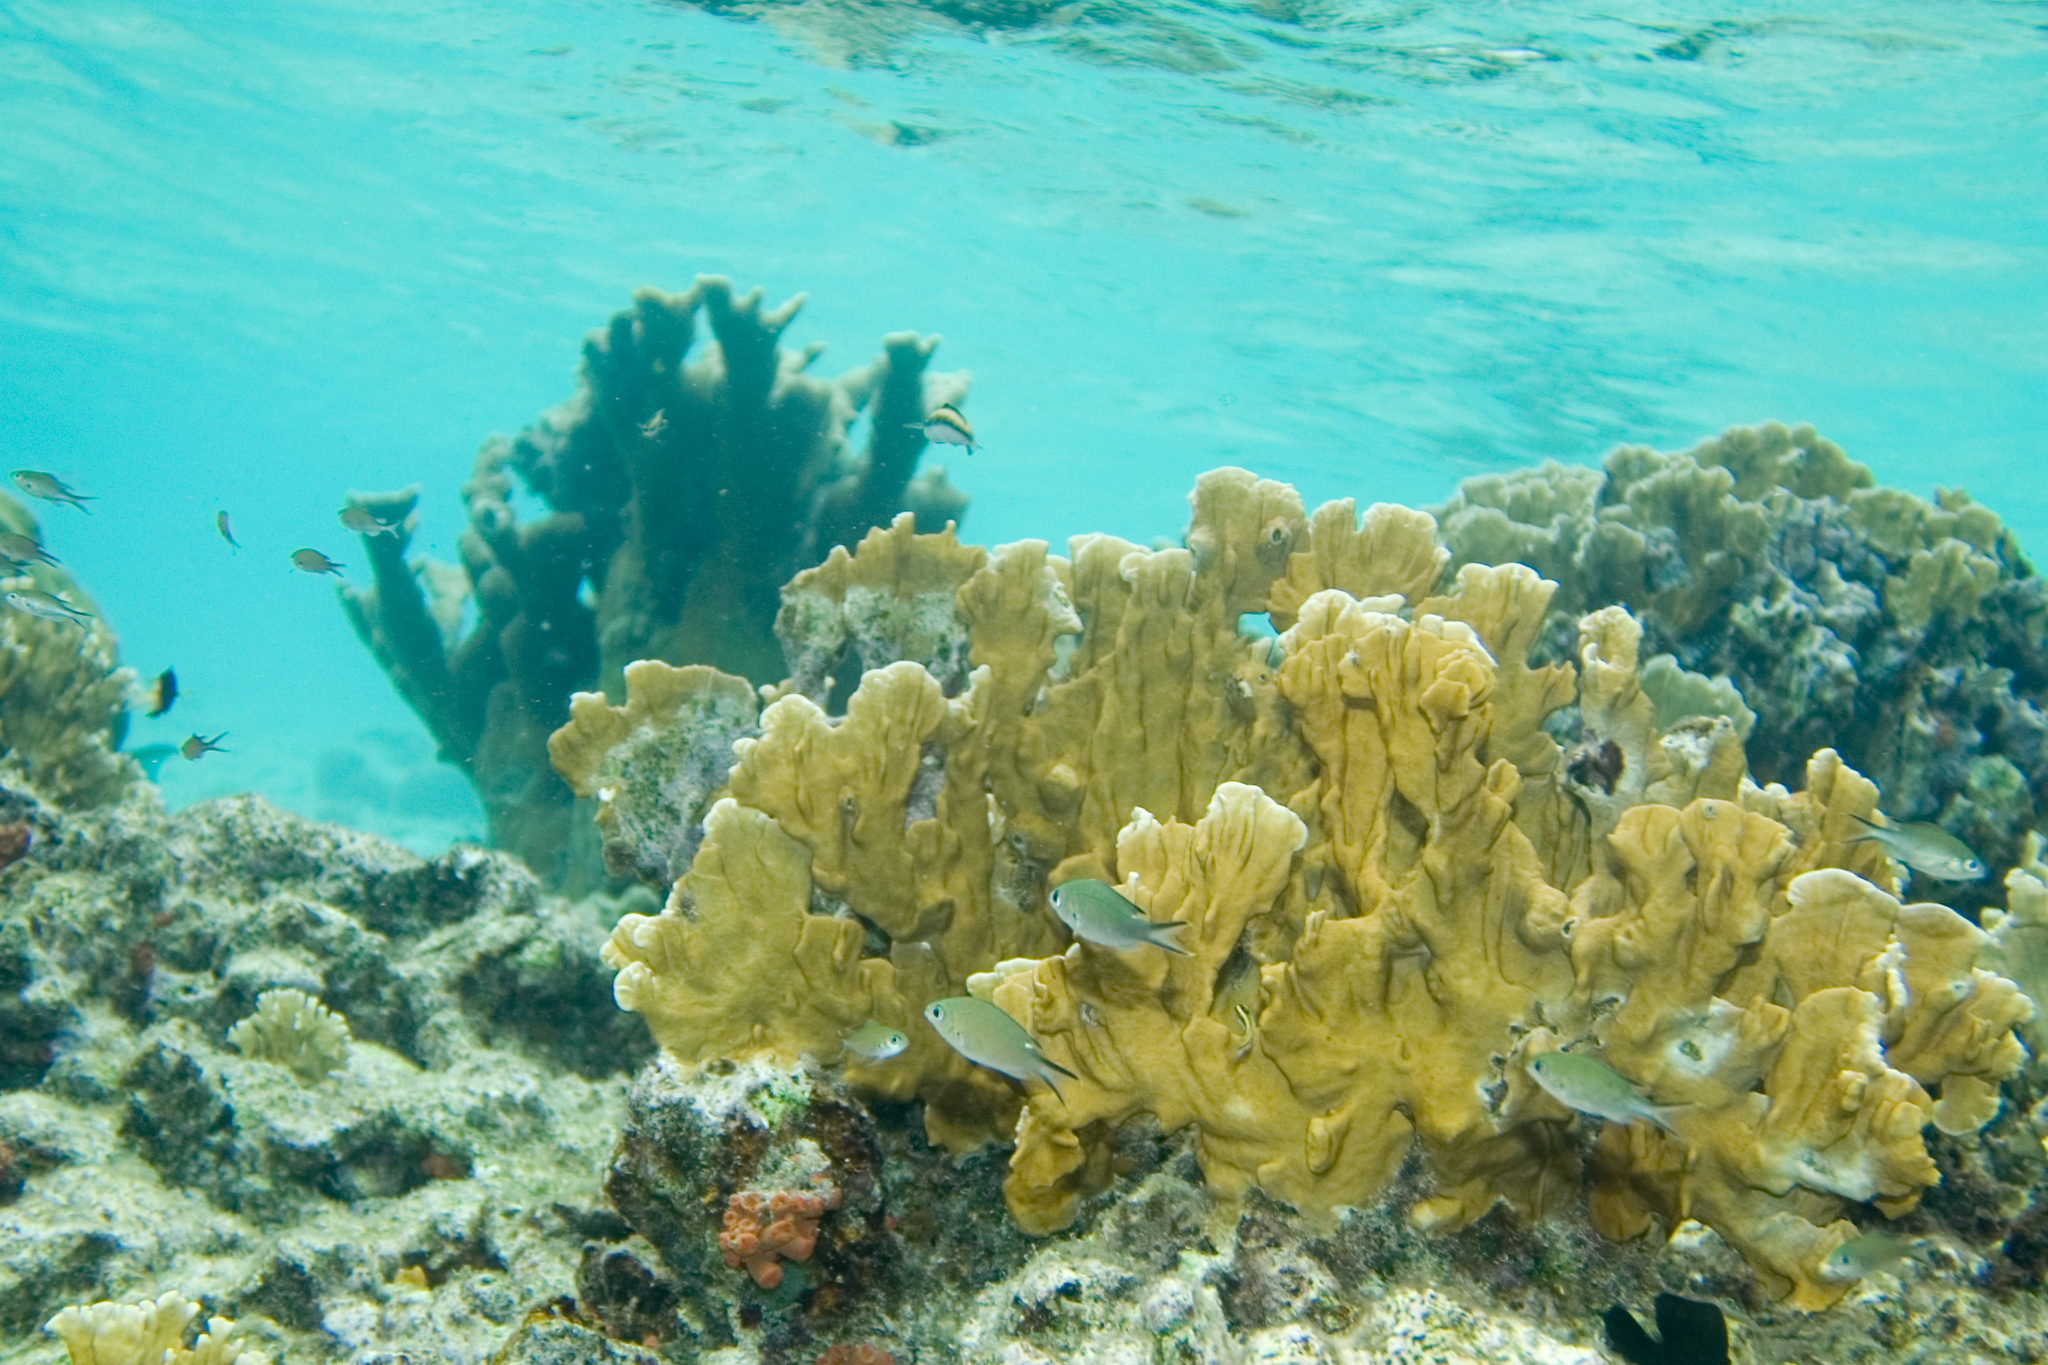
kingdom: Animalia
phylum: Chordata
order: Perciformes
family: Pomacentridae
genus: Chromis
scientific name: Chromis multilineata
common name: Brown chromis
